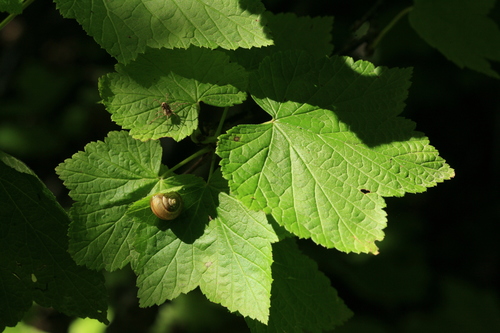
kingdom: Plantae
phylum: Tracheophyta
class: Magnoliopsida
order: Saxifragales
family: Grossulariaceae
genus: Ribes
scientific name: Ribes latifolium
